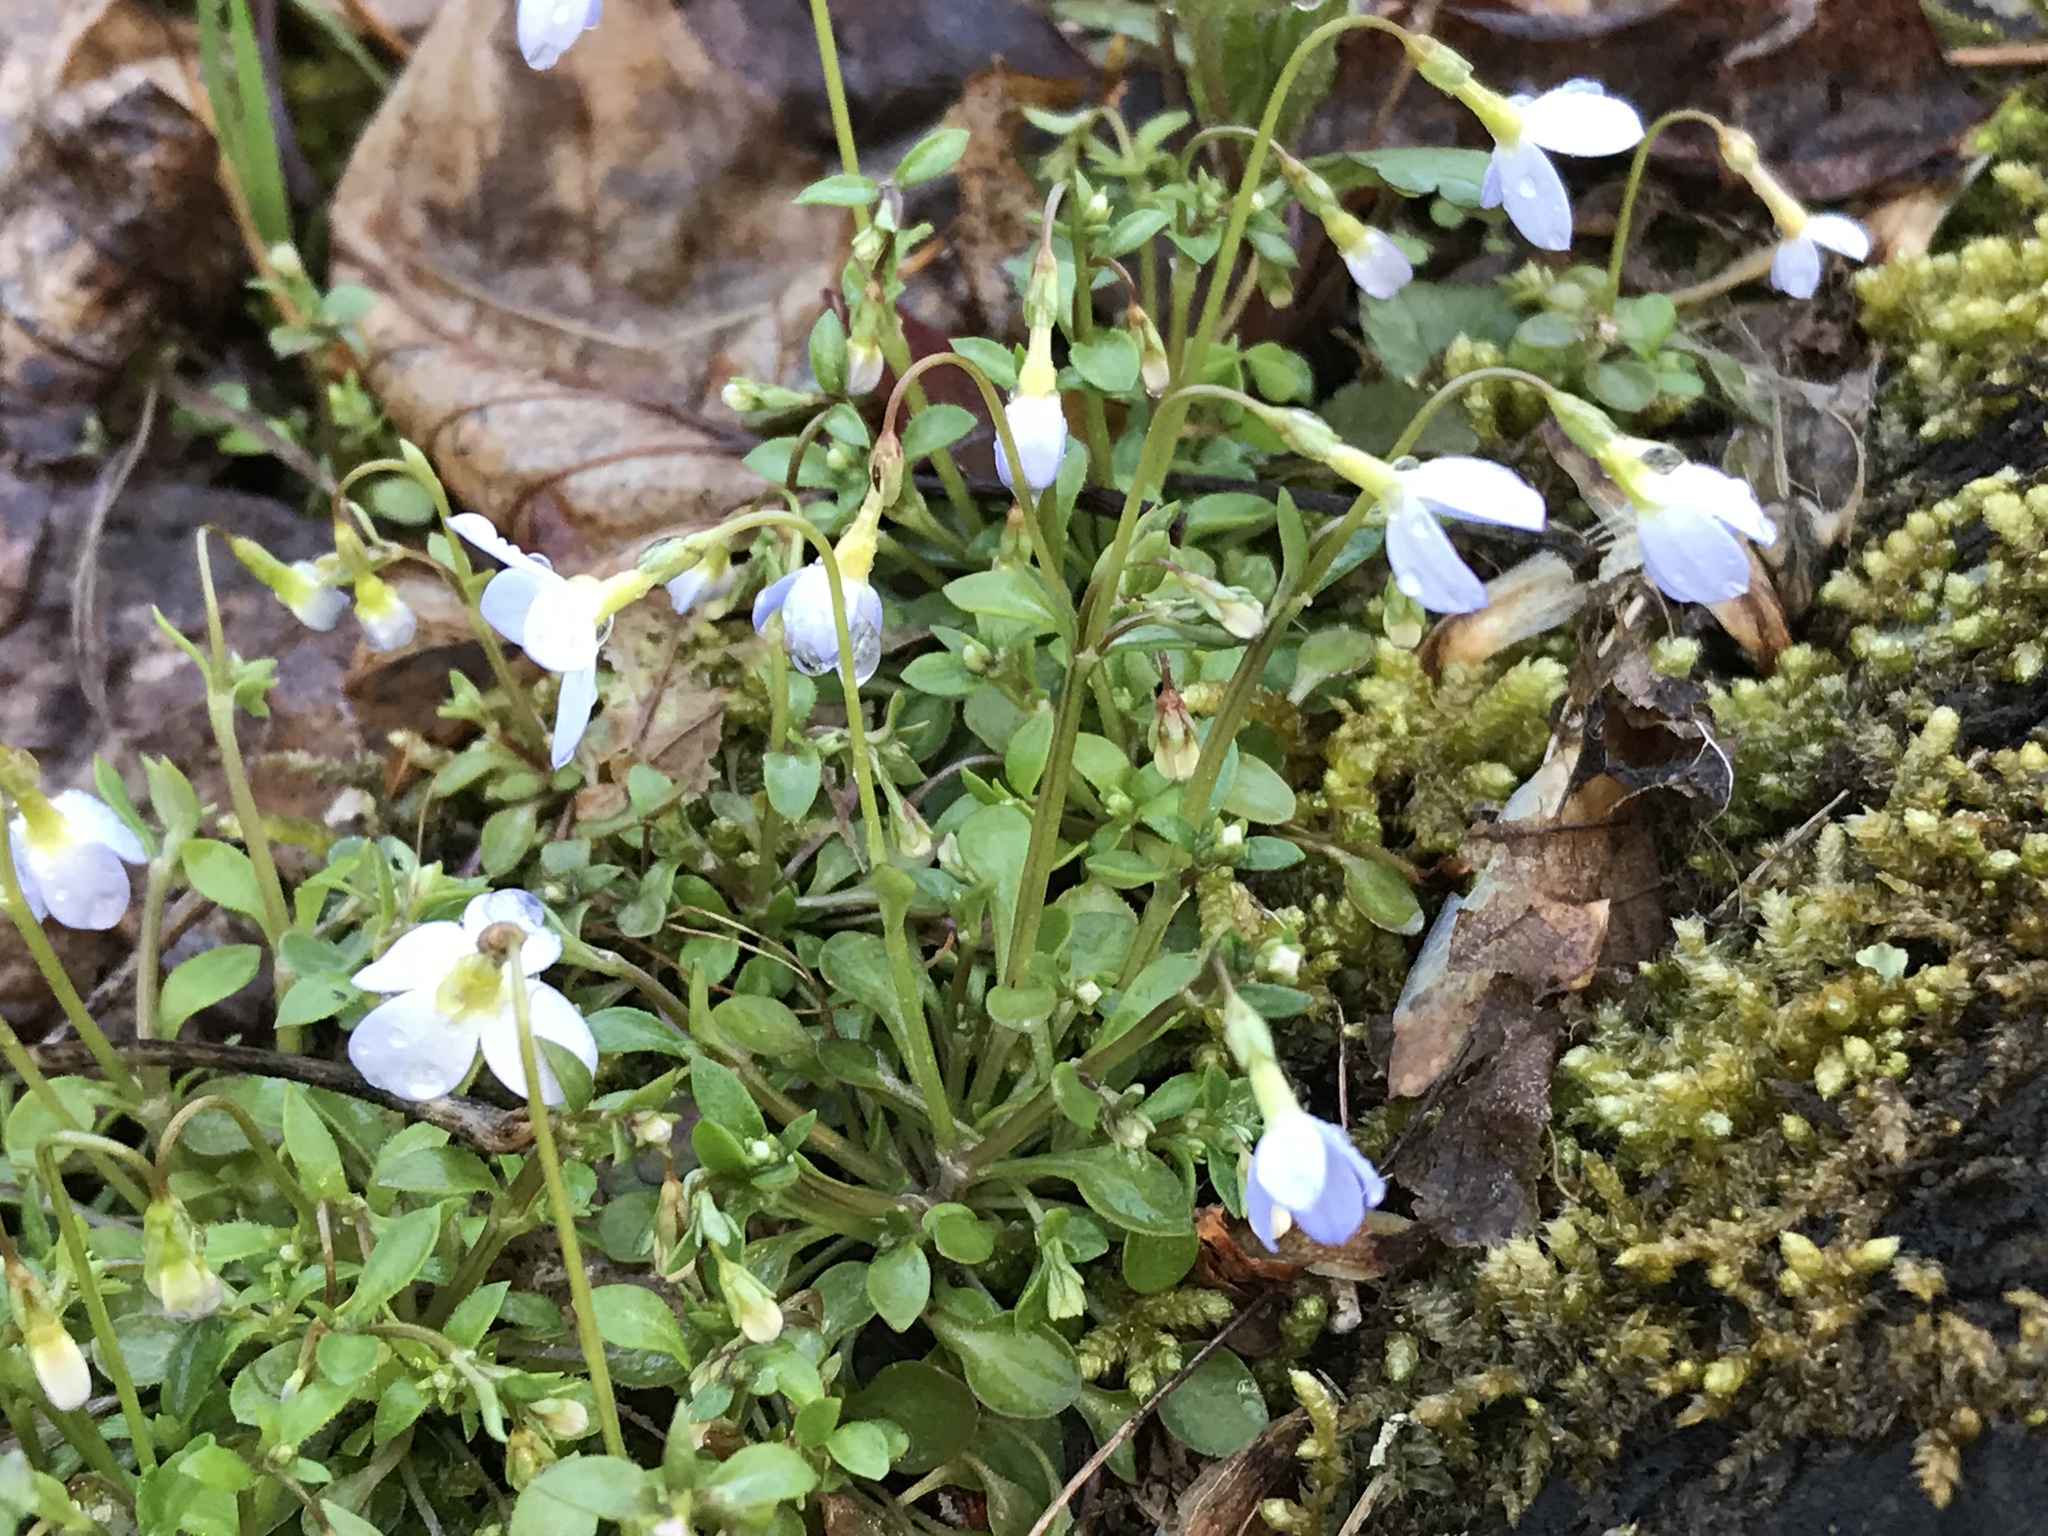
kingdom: Plantae
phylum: Tracheophyta
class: Magnoliopsida
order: Gentianales
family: Rubiaceae
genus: Houstonia
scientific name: Houstonia caerulea
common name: Bluets
